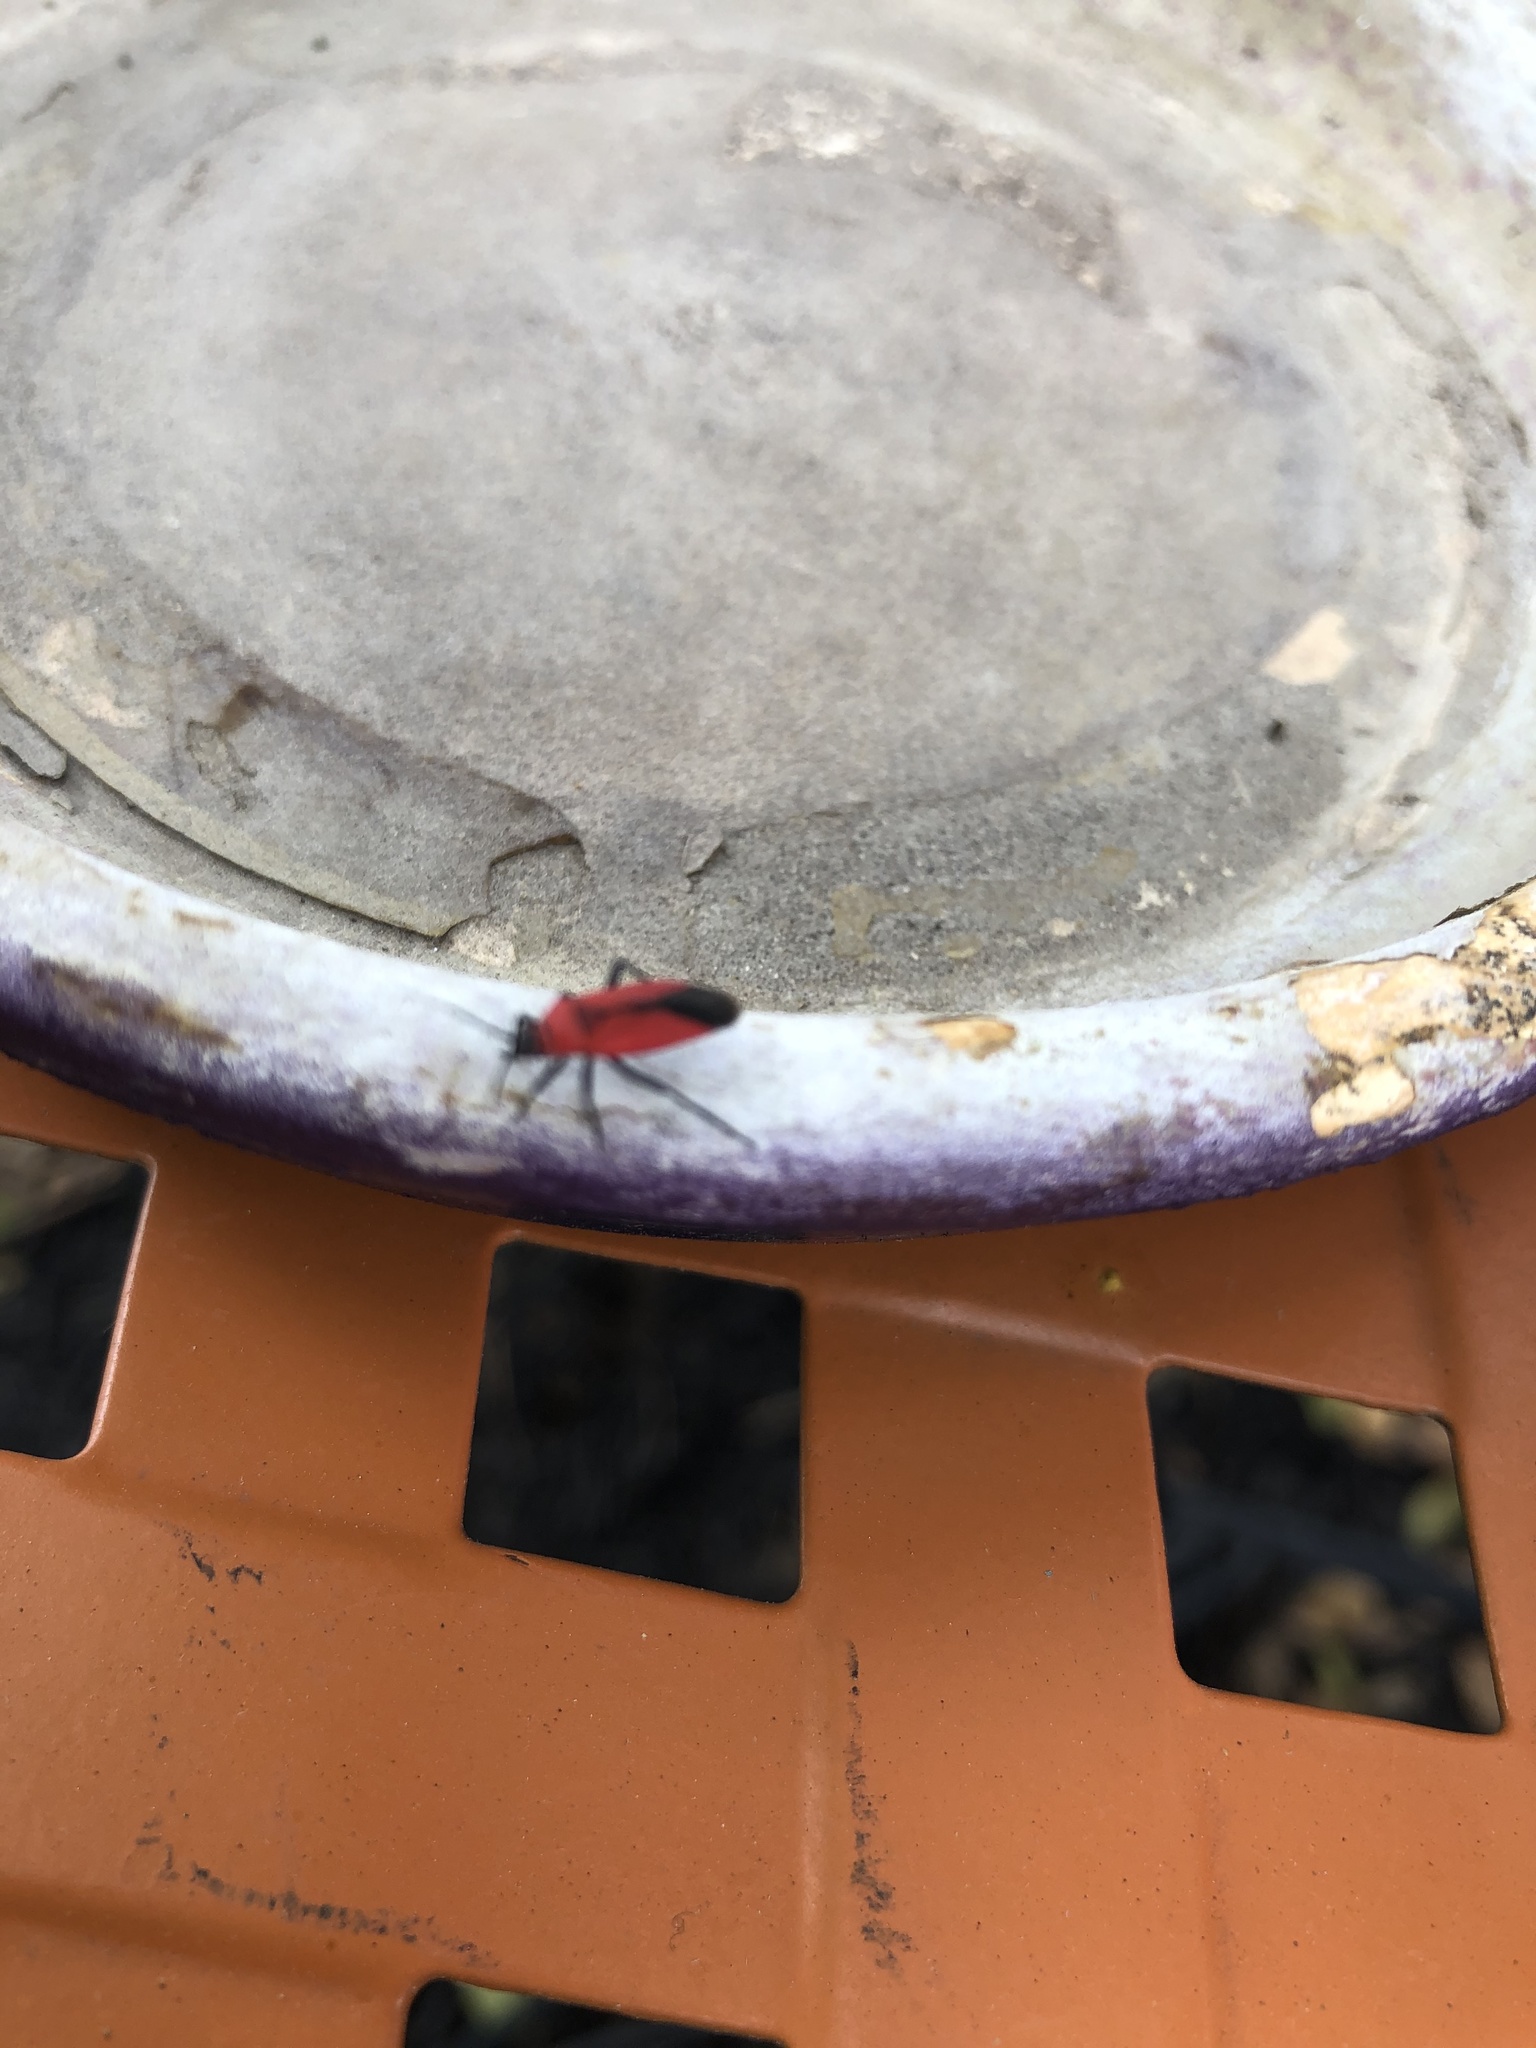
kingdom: Animalia
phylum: Arthropoda
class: Insecta
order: Hemiptera
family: Miridae
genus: Lopidea
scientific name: Lopidea major
